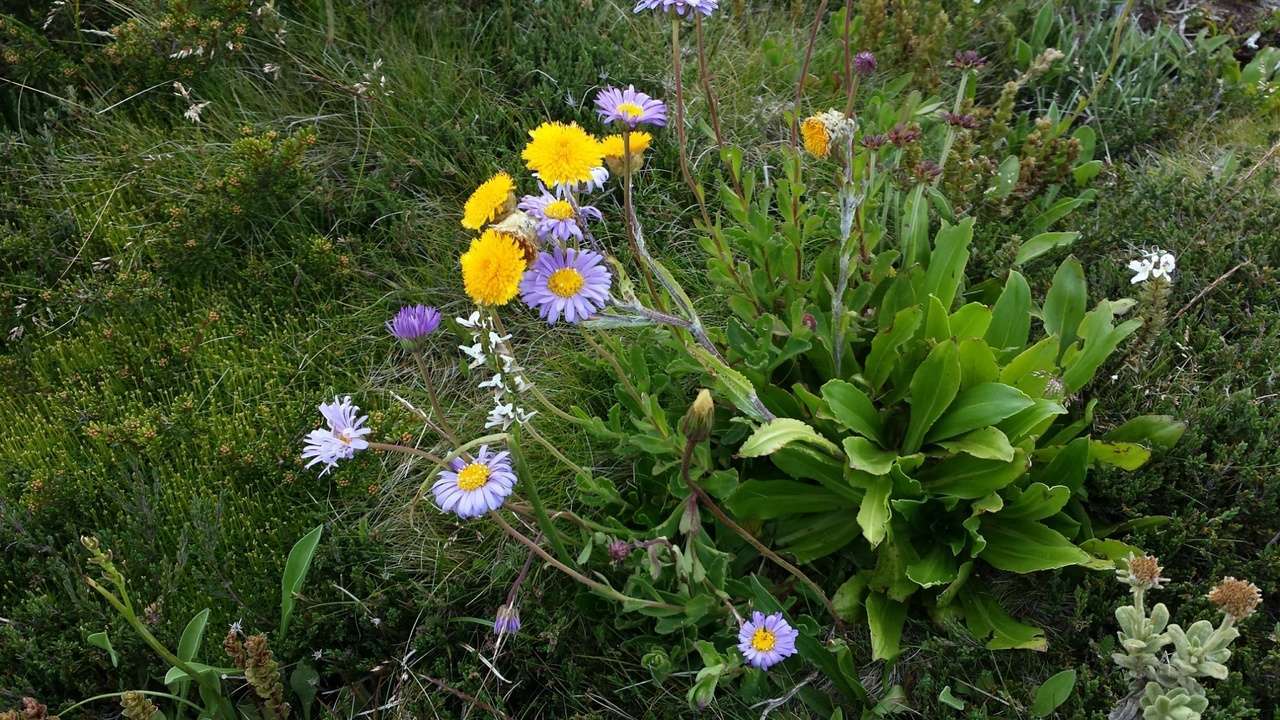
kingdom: Plantae
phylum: Tracheophyta
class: Magnoliopsida
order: Asterales
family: Asteraceae
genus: Podolepis
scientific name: Podolepis robusta
